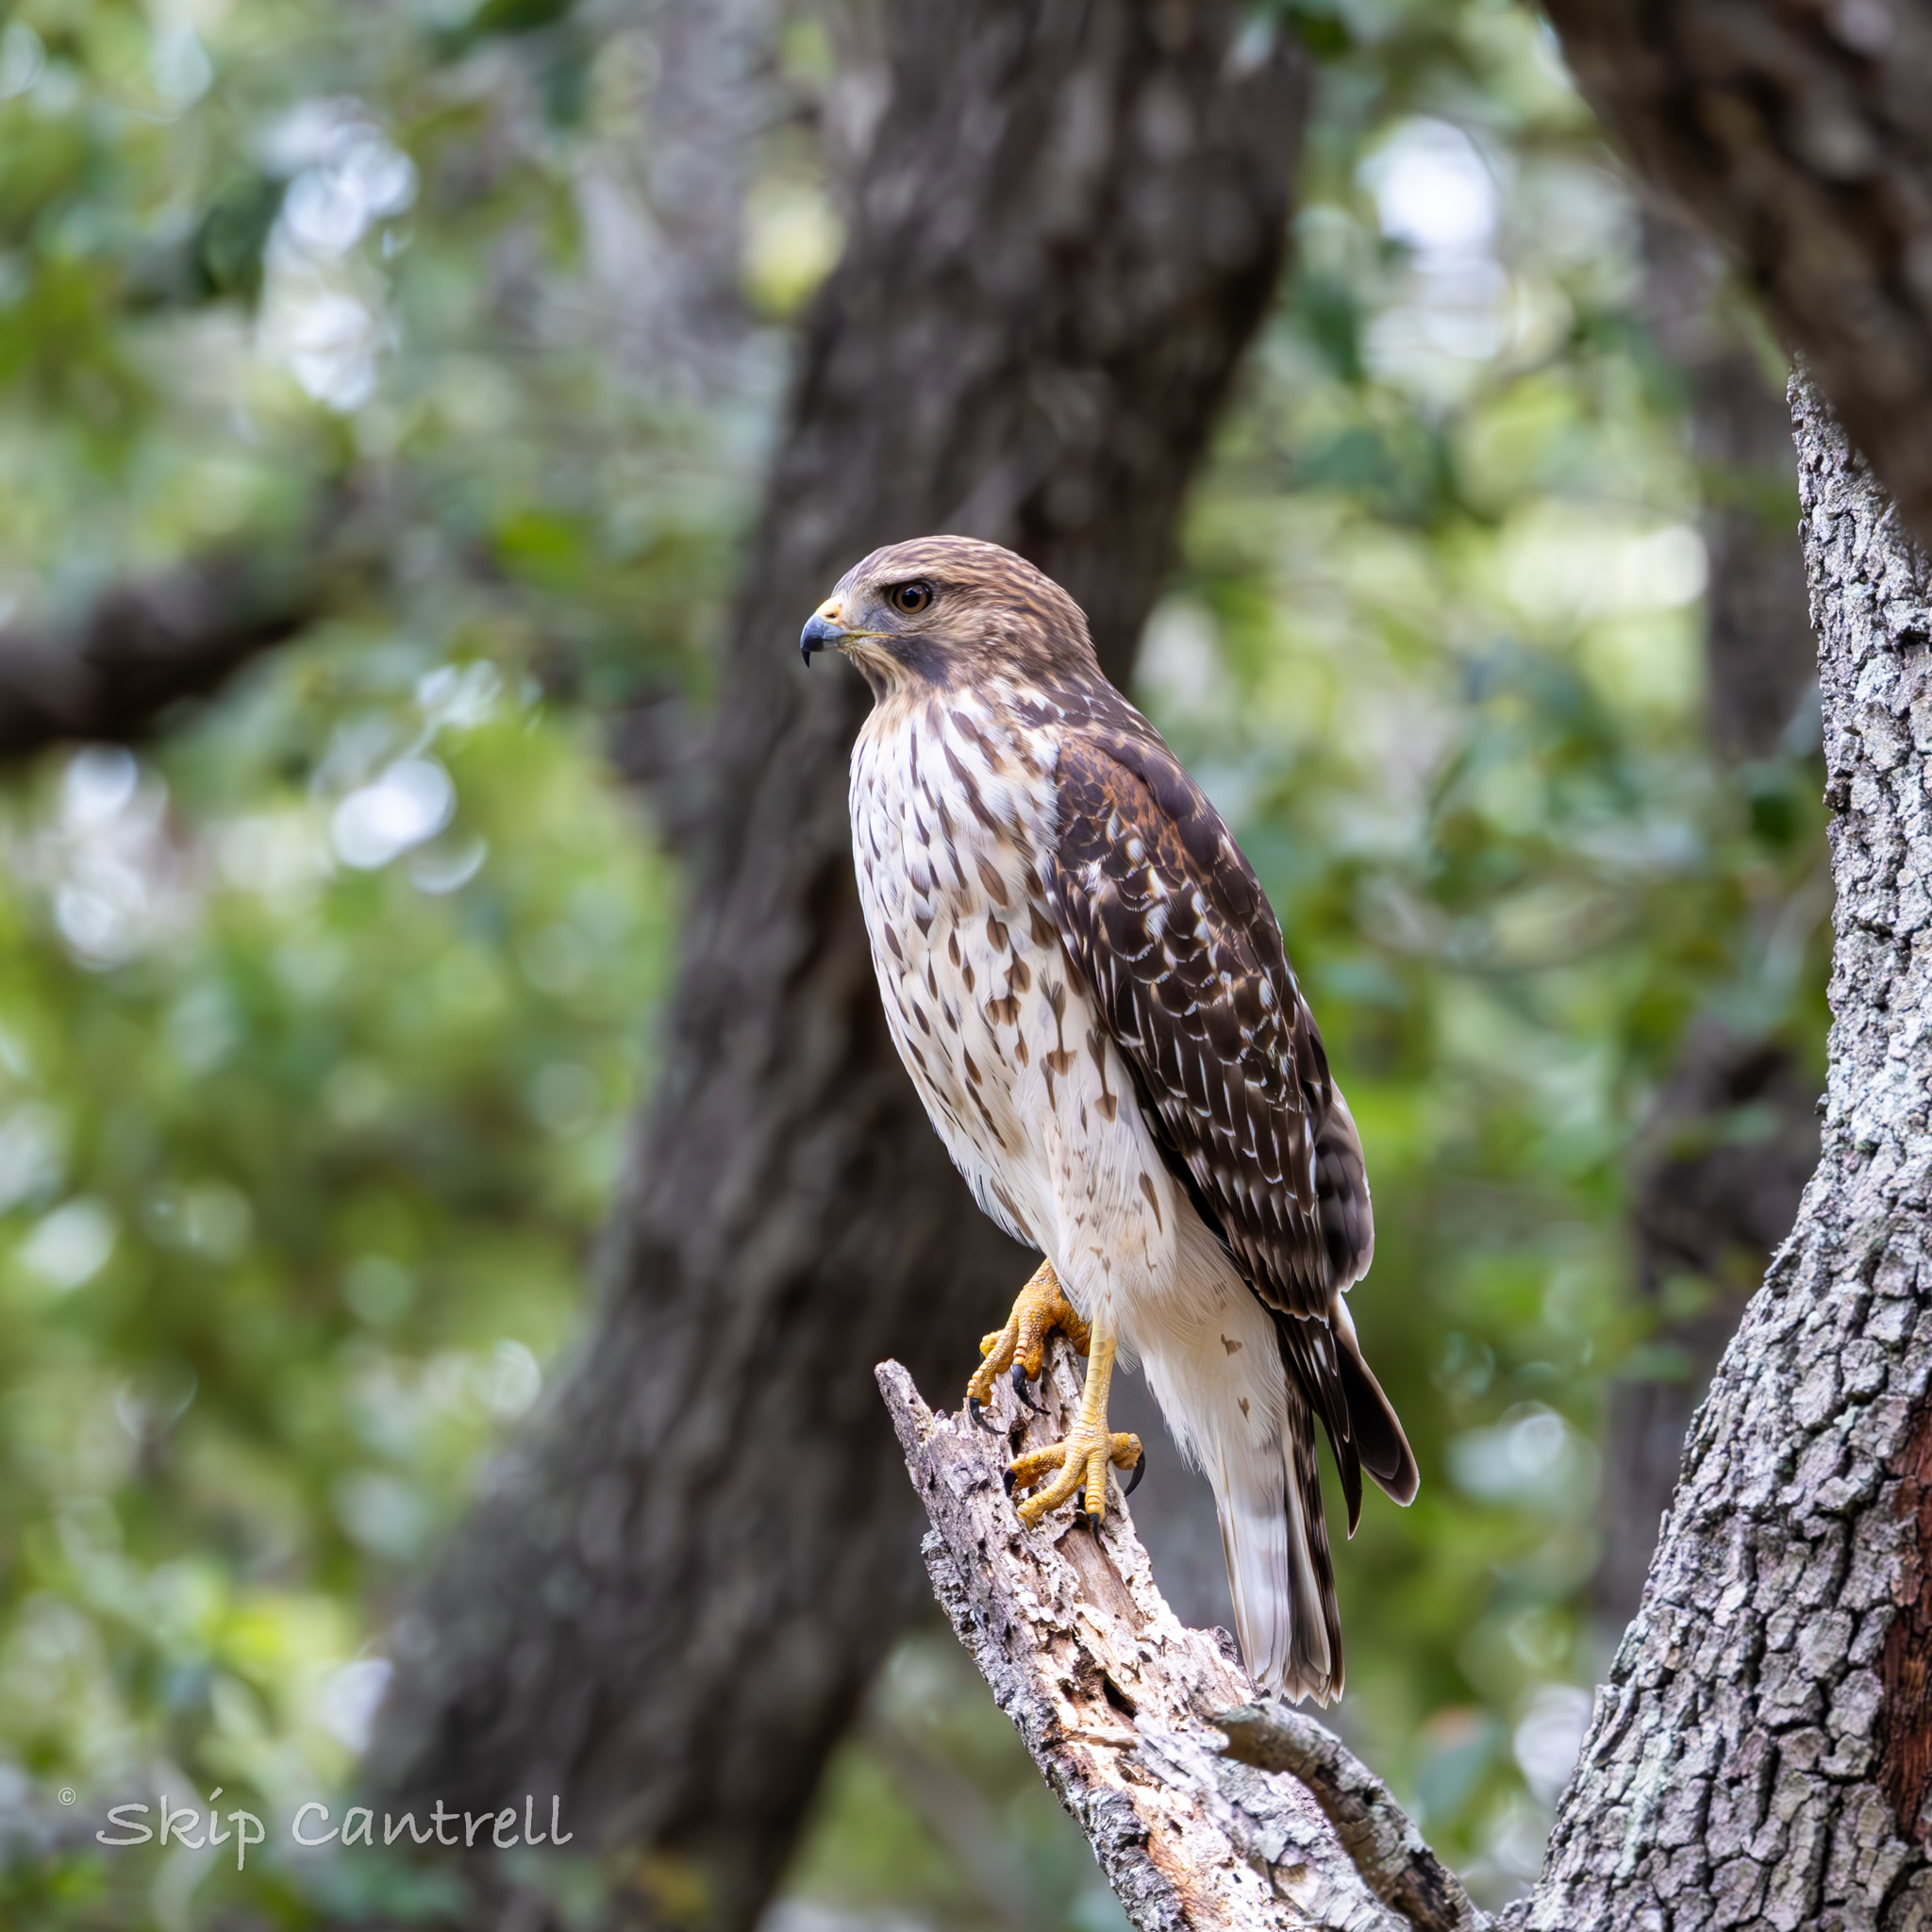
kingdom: Animalia
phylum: Chordata
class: Aves
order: Accipitriformes
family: Accipitridae
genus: Buteo
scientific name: Buteo lineatus
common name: Red-shouldered hawk
